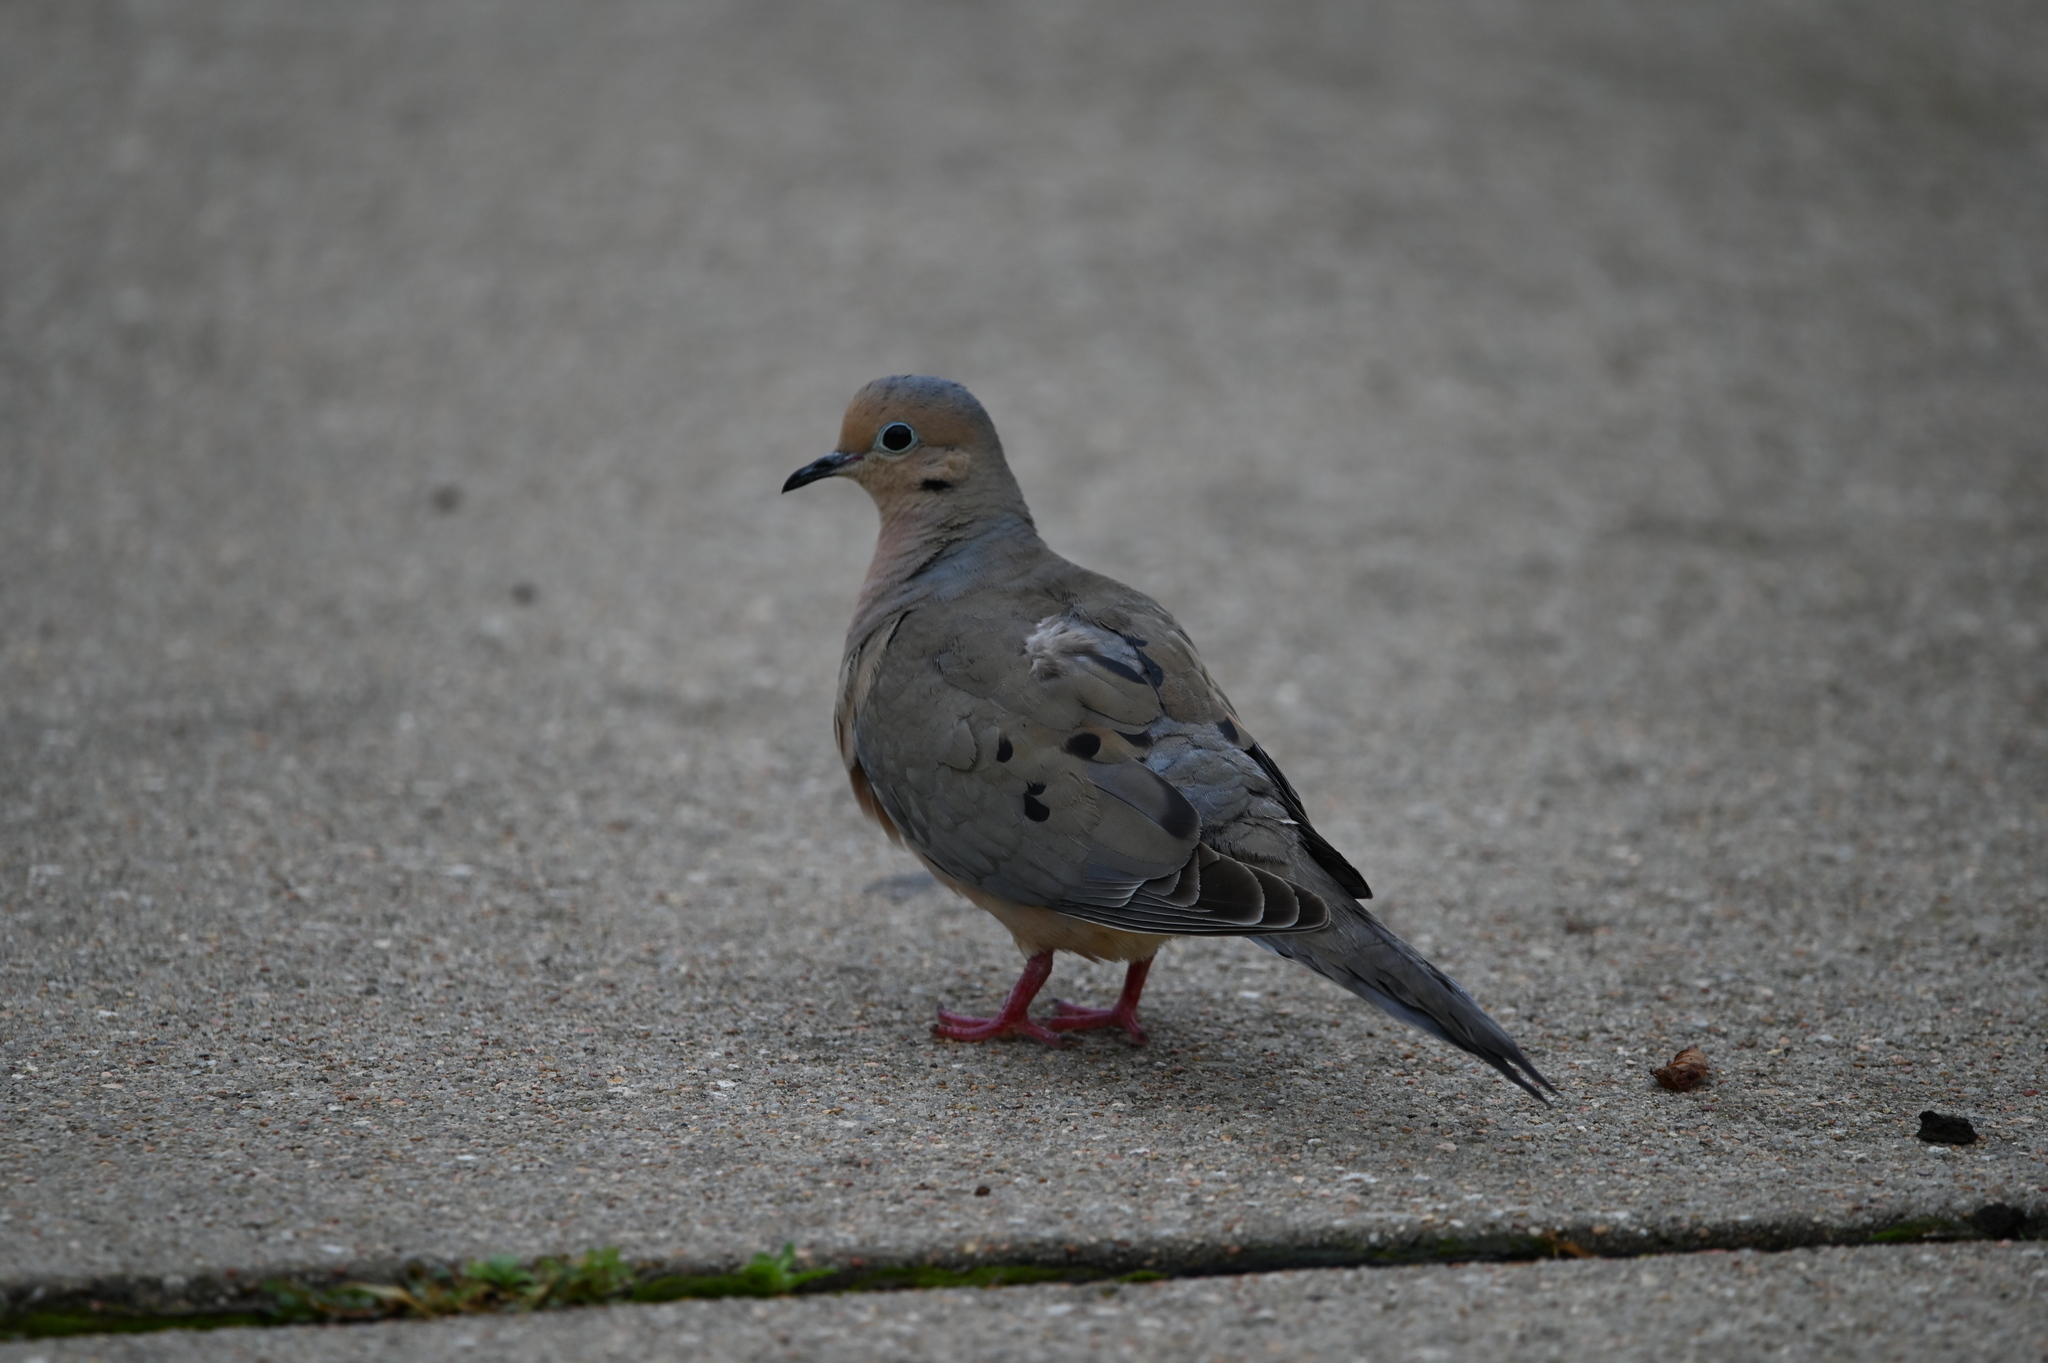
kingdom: Animalia
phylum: Chordata
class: Aves
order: Columbiformes
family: Columbidae
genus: Zenaida
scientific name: Zenaida macroura
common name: Mourning dove
